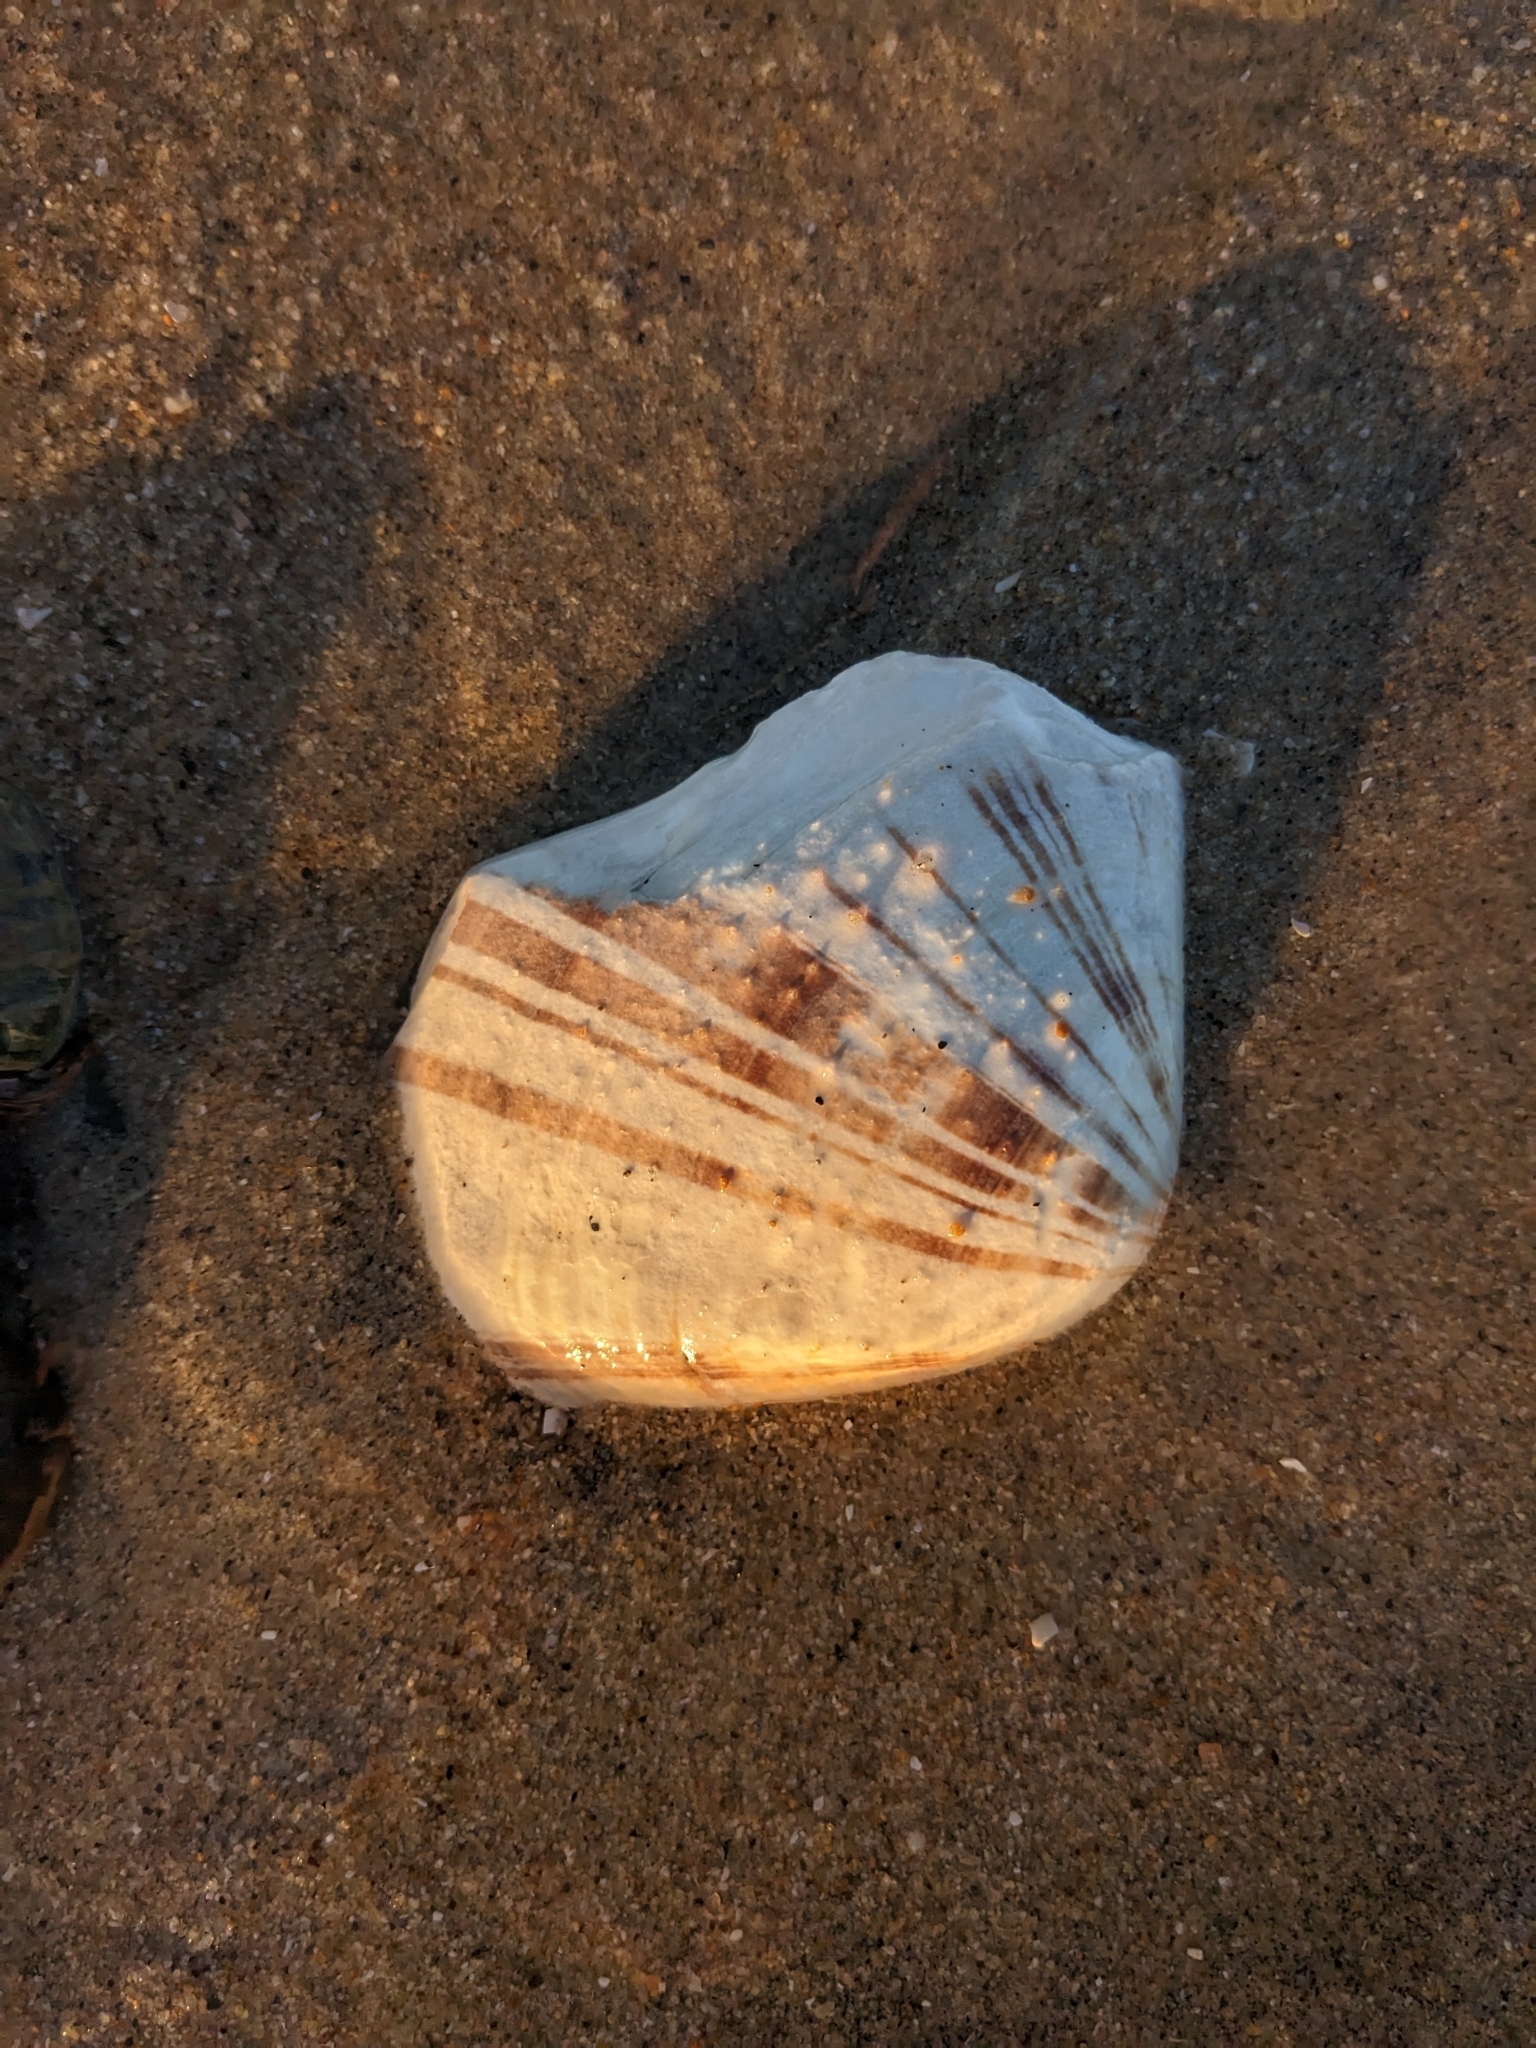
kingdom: Animalia
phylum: Mollusca
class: Bivalvia
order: Venerida
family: Veneridae
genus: Tivela
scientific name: Tivela stultorum
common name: Pismo clam
